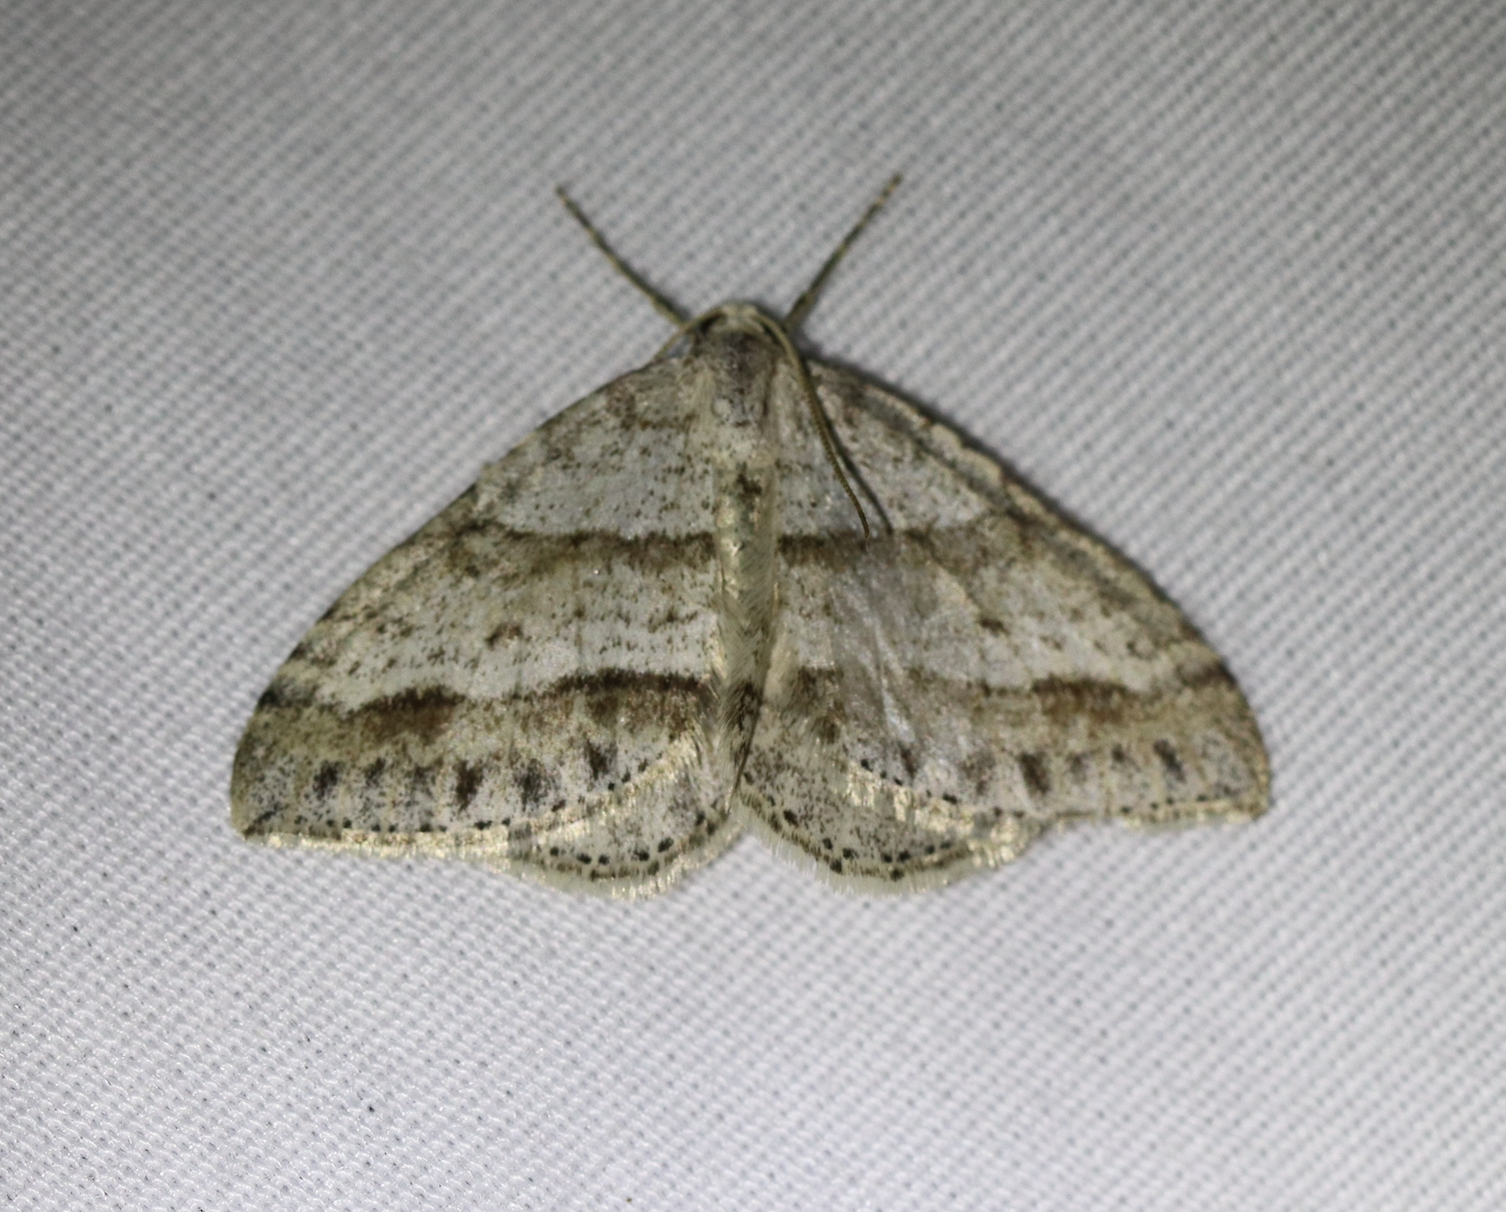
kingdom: Animalia
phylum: Arthropoda
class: Insecta
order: Lepidoptera
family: Geometridae
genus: Perizoma
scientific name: Perizoma parallelolineata
